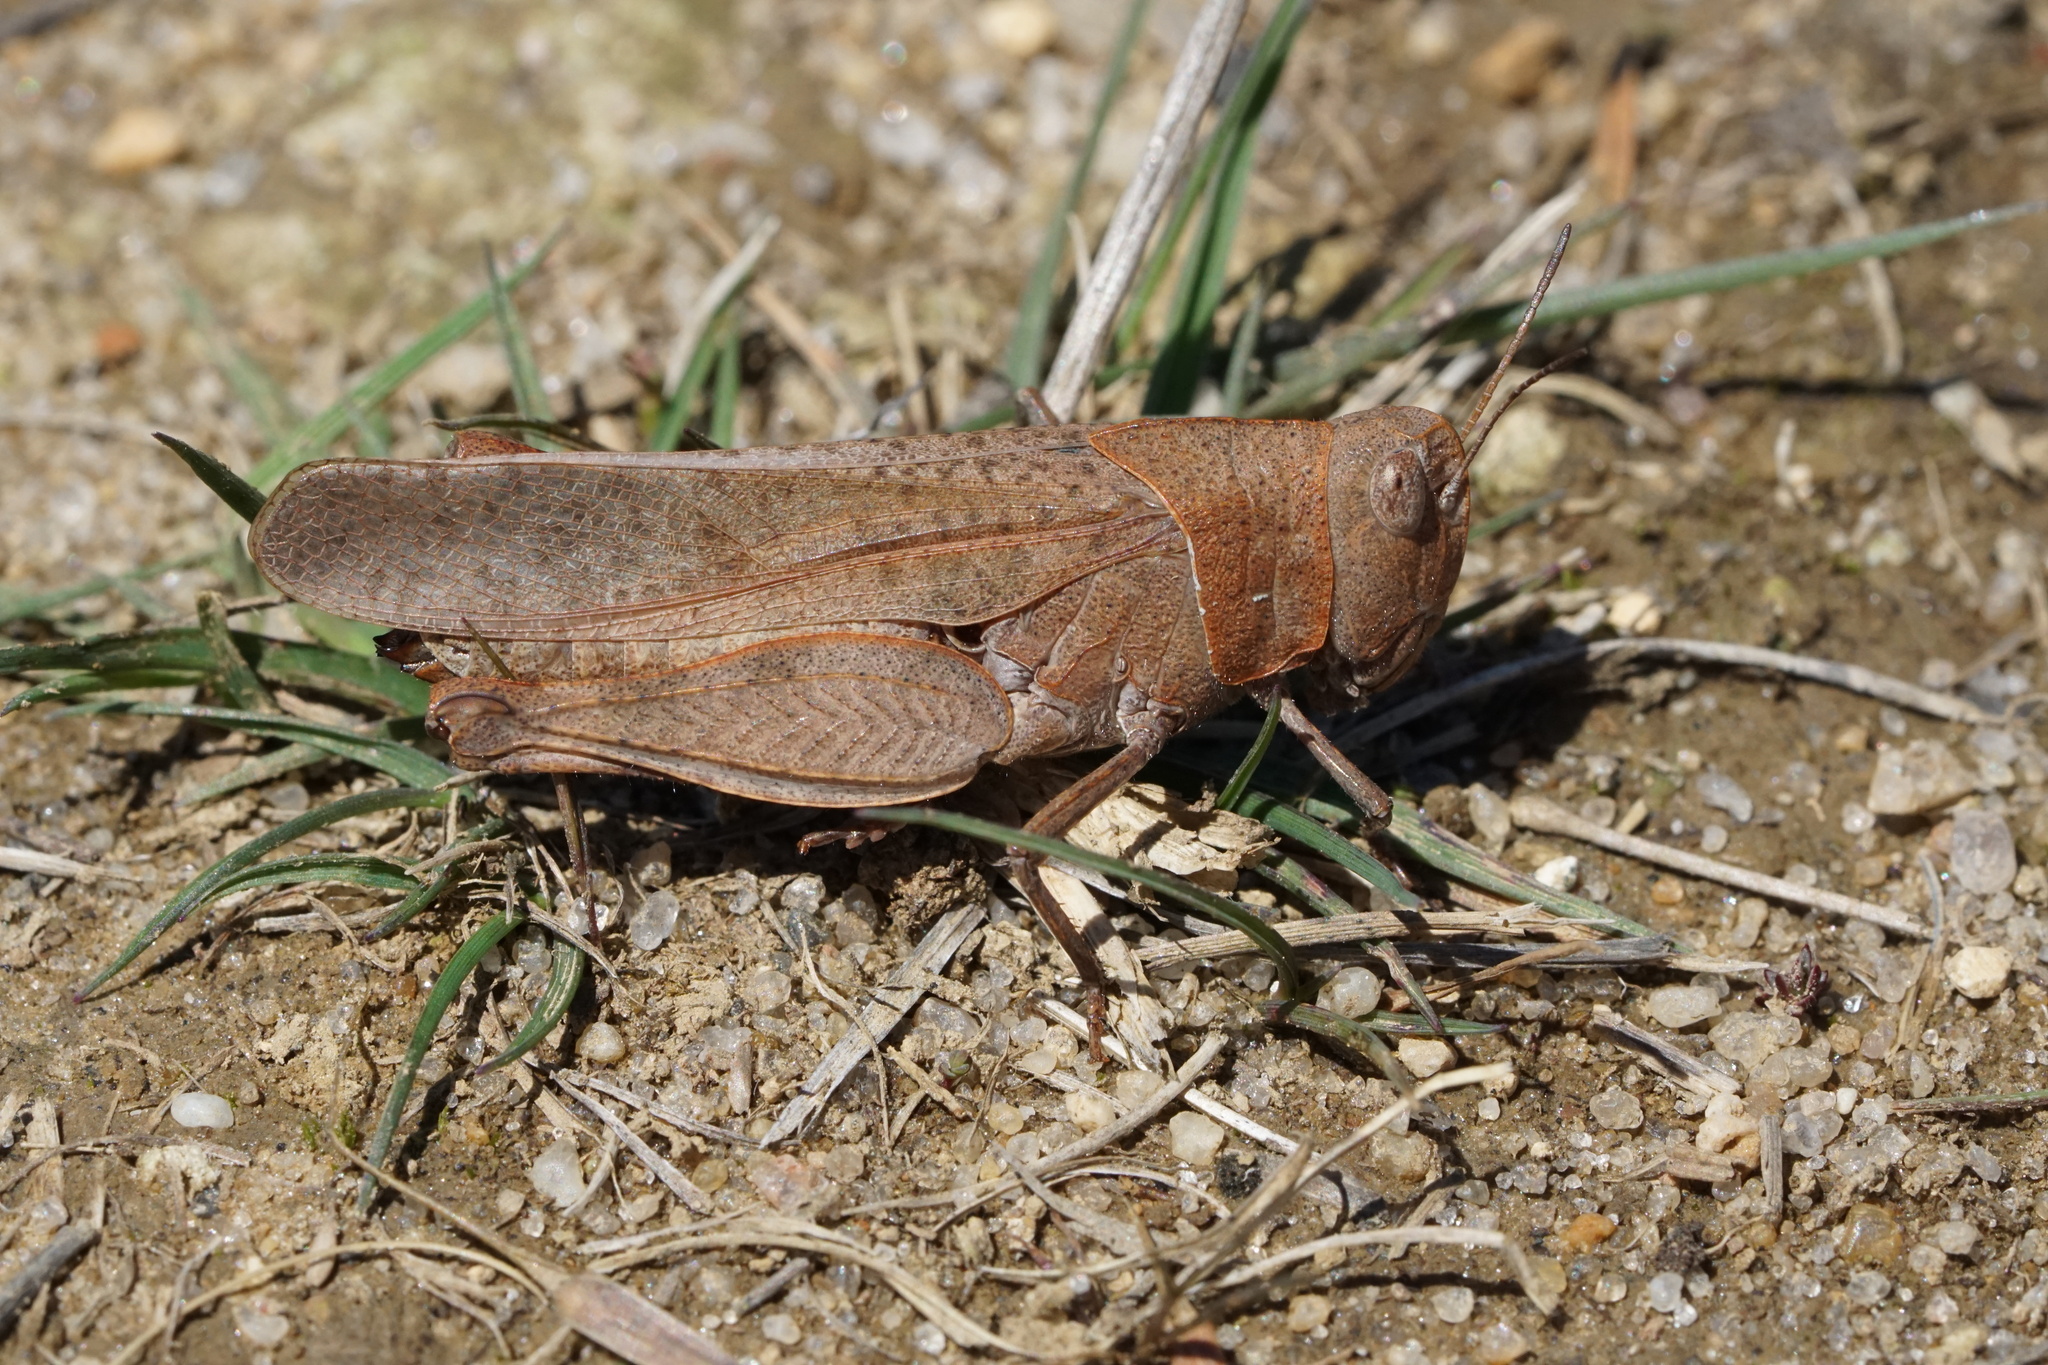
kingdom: Animalia
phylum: Arthropoda
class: Insecta
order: Orthoptera
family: Acrididae
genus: Arphia
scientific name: Arphia sulphurea
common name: Spring yellow-winged locust
